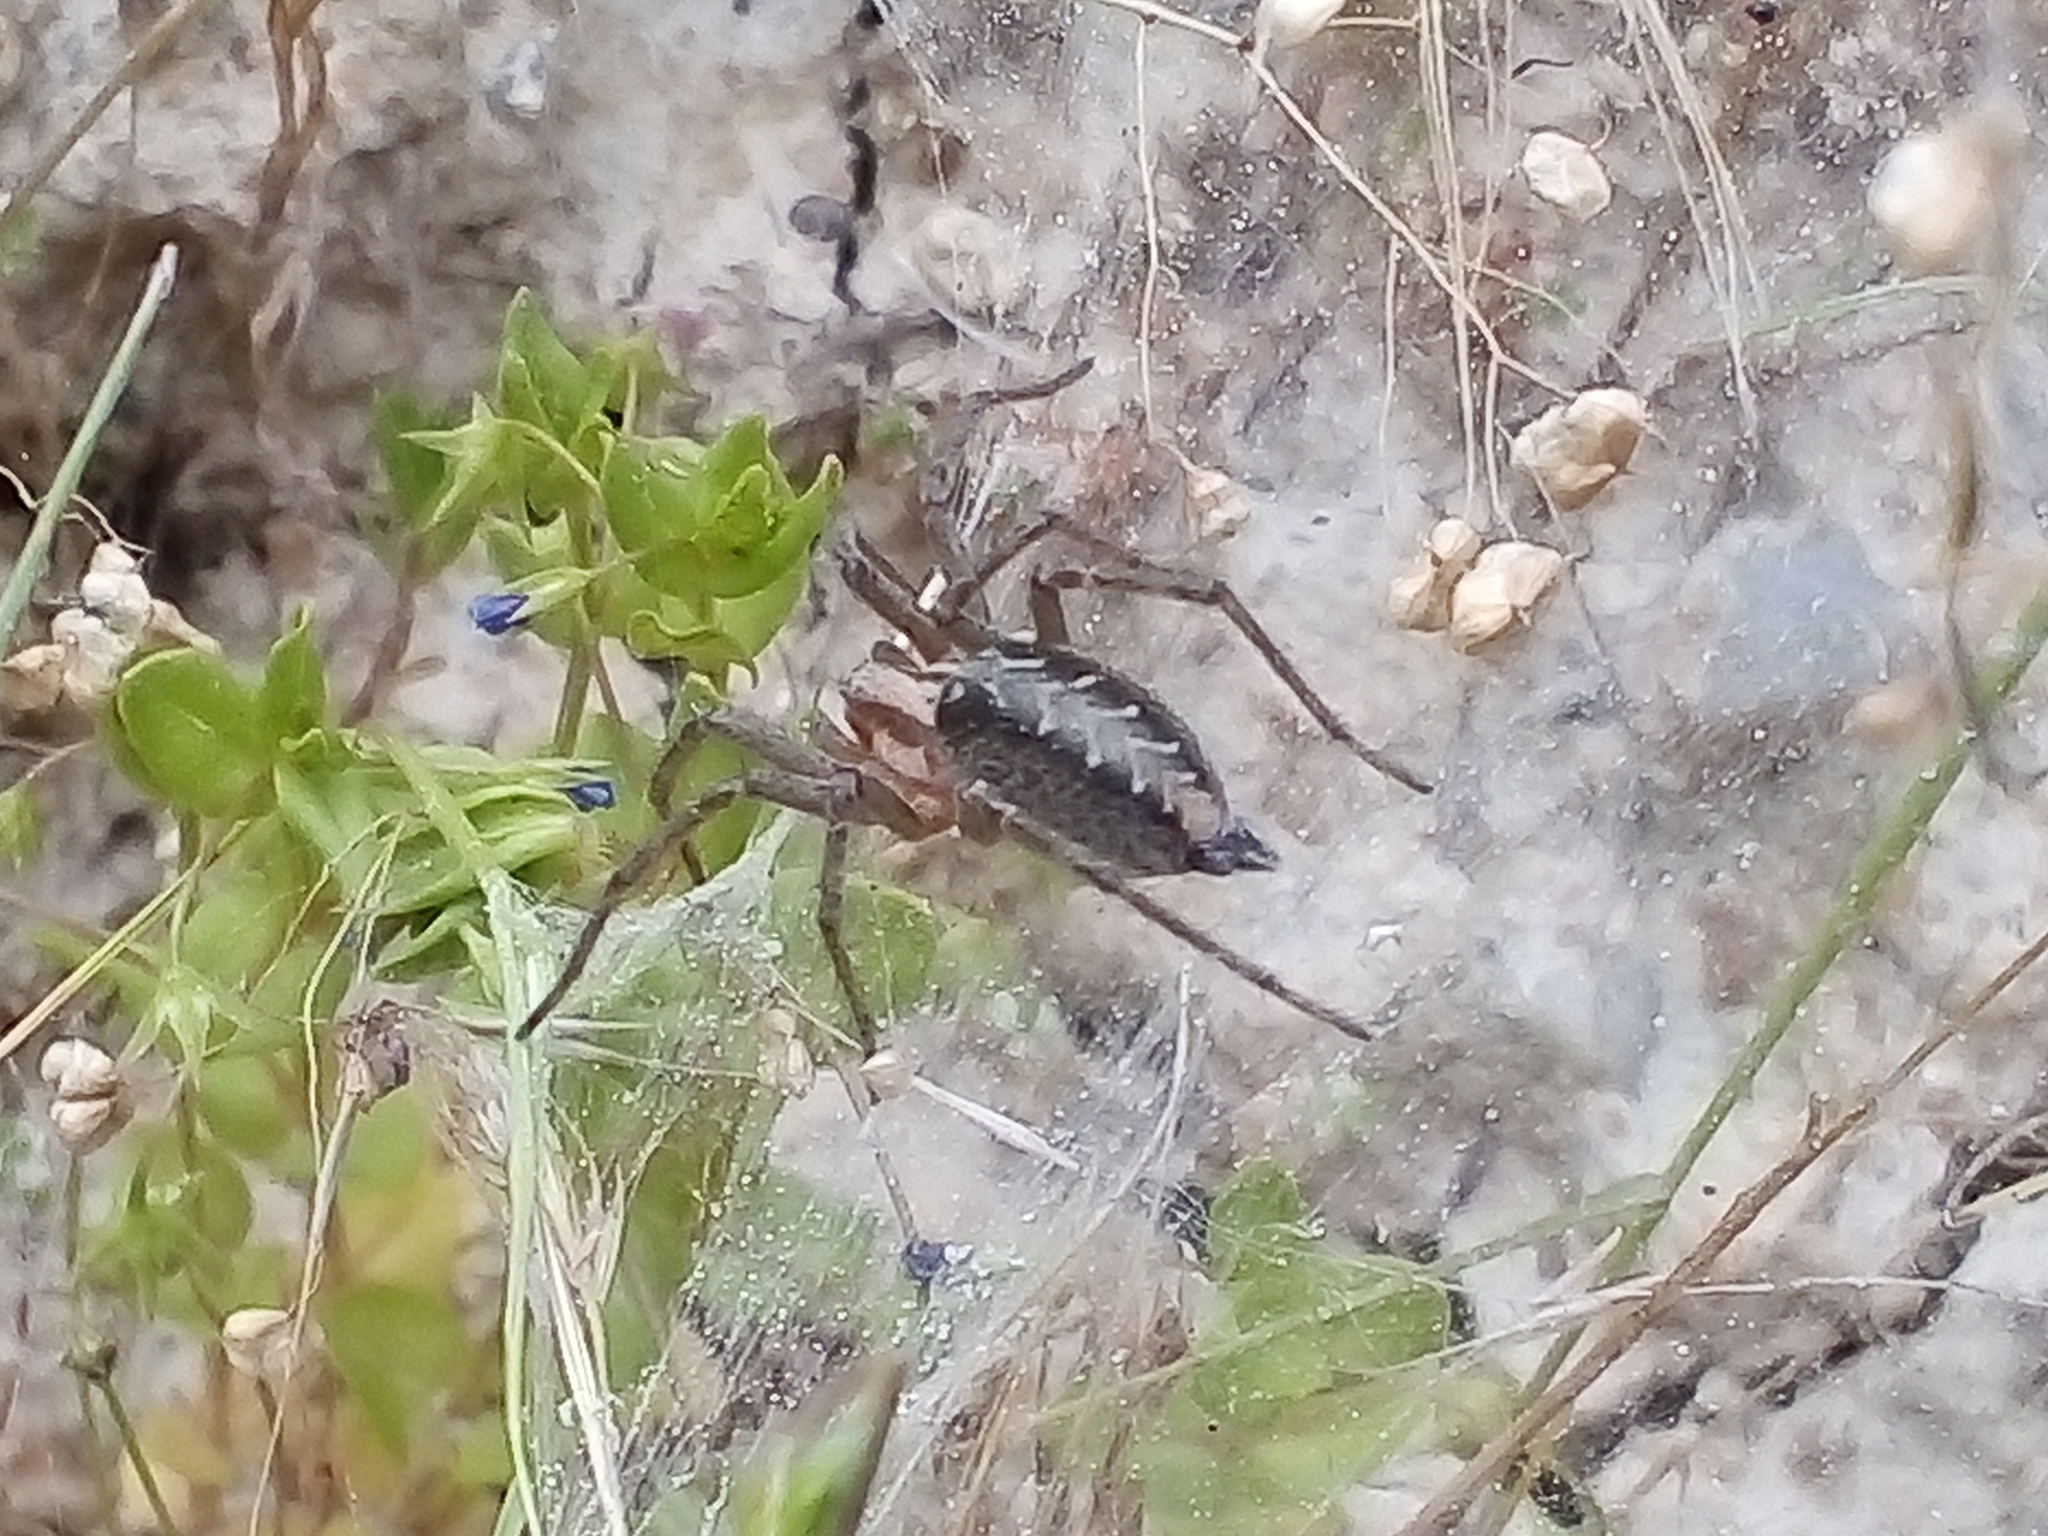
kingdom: Animalia
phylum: Arthropoda
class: Arachnida
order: Araneae
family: Agelenidae
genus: Agelena
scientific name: Agelena labyrinthica
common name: Labyrinth spider
